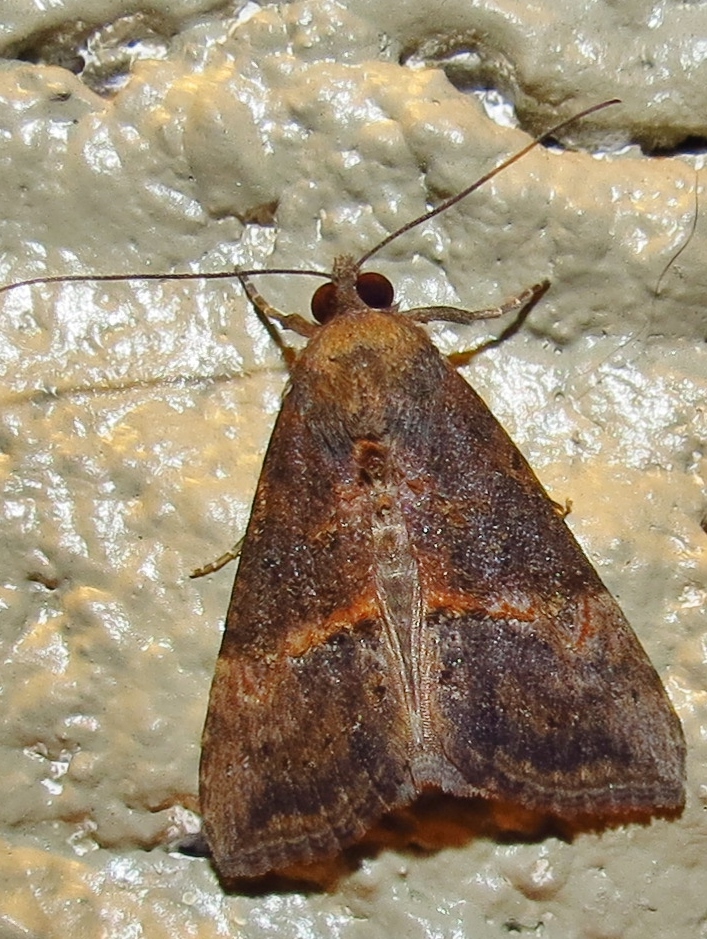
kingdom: Animalia
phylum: Arthropoda
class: Insecta
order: Lepidoptera
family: Erebidae
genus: Hypena
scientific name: Hypena scabra
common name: Green cloverworm
